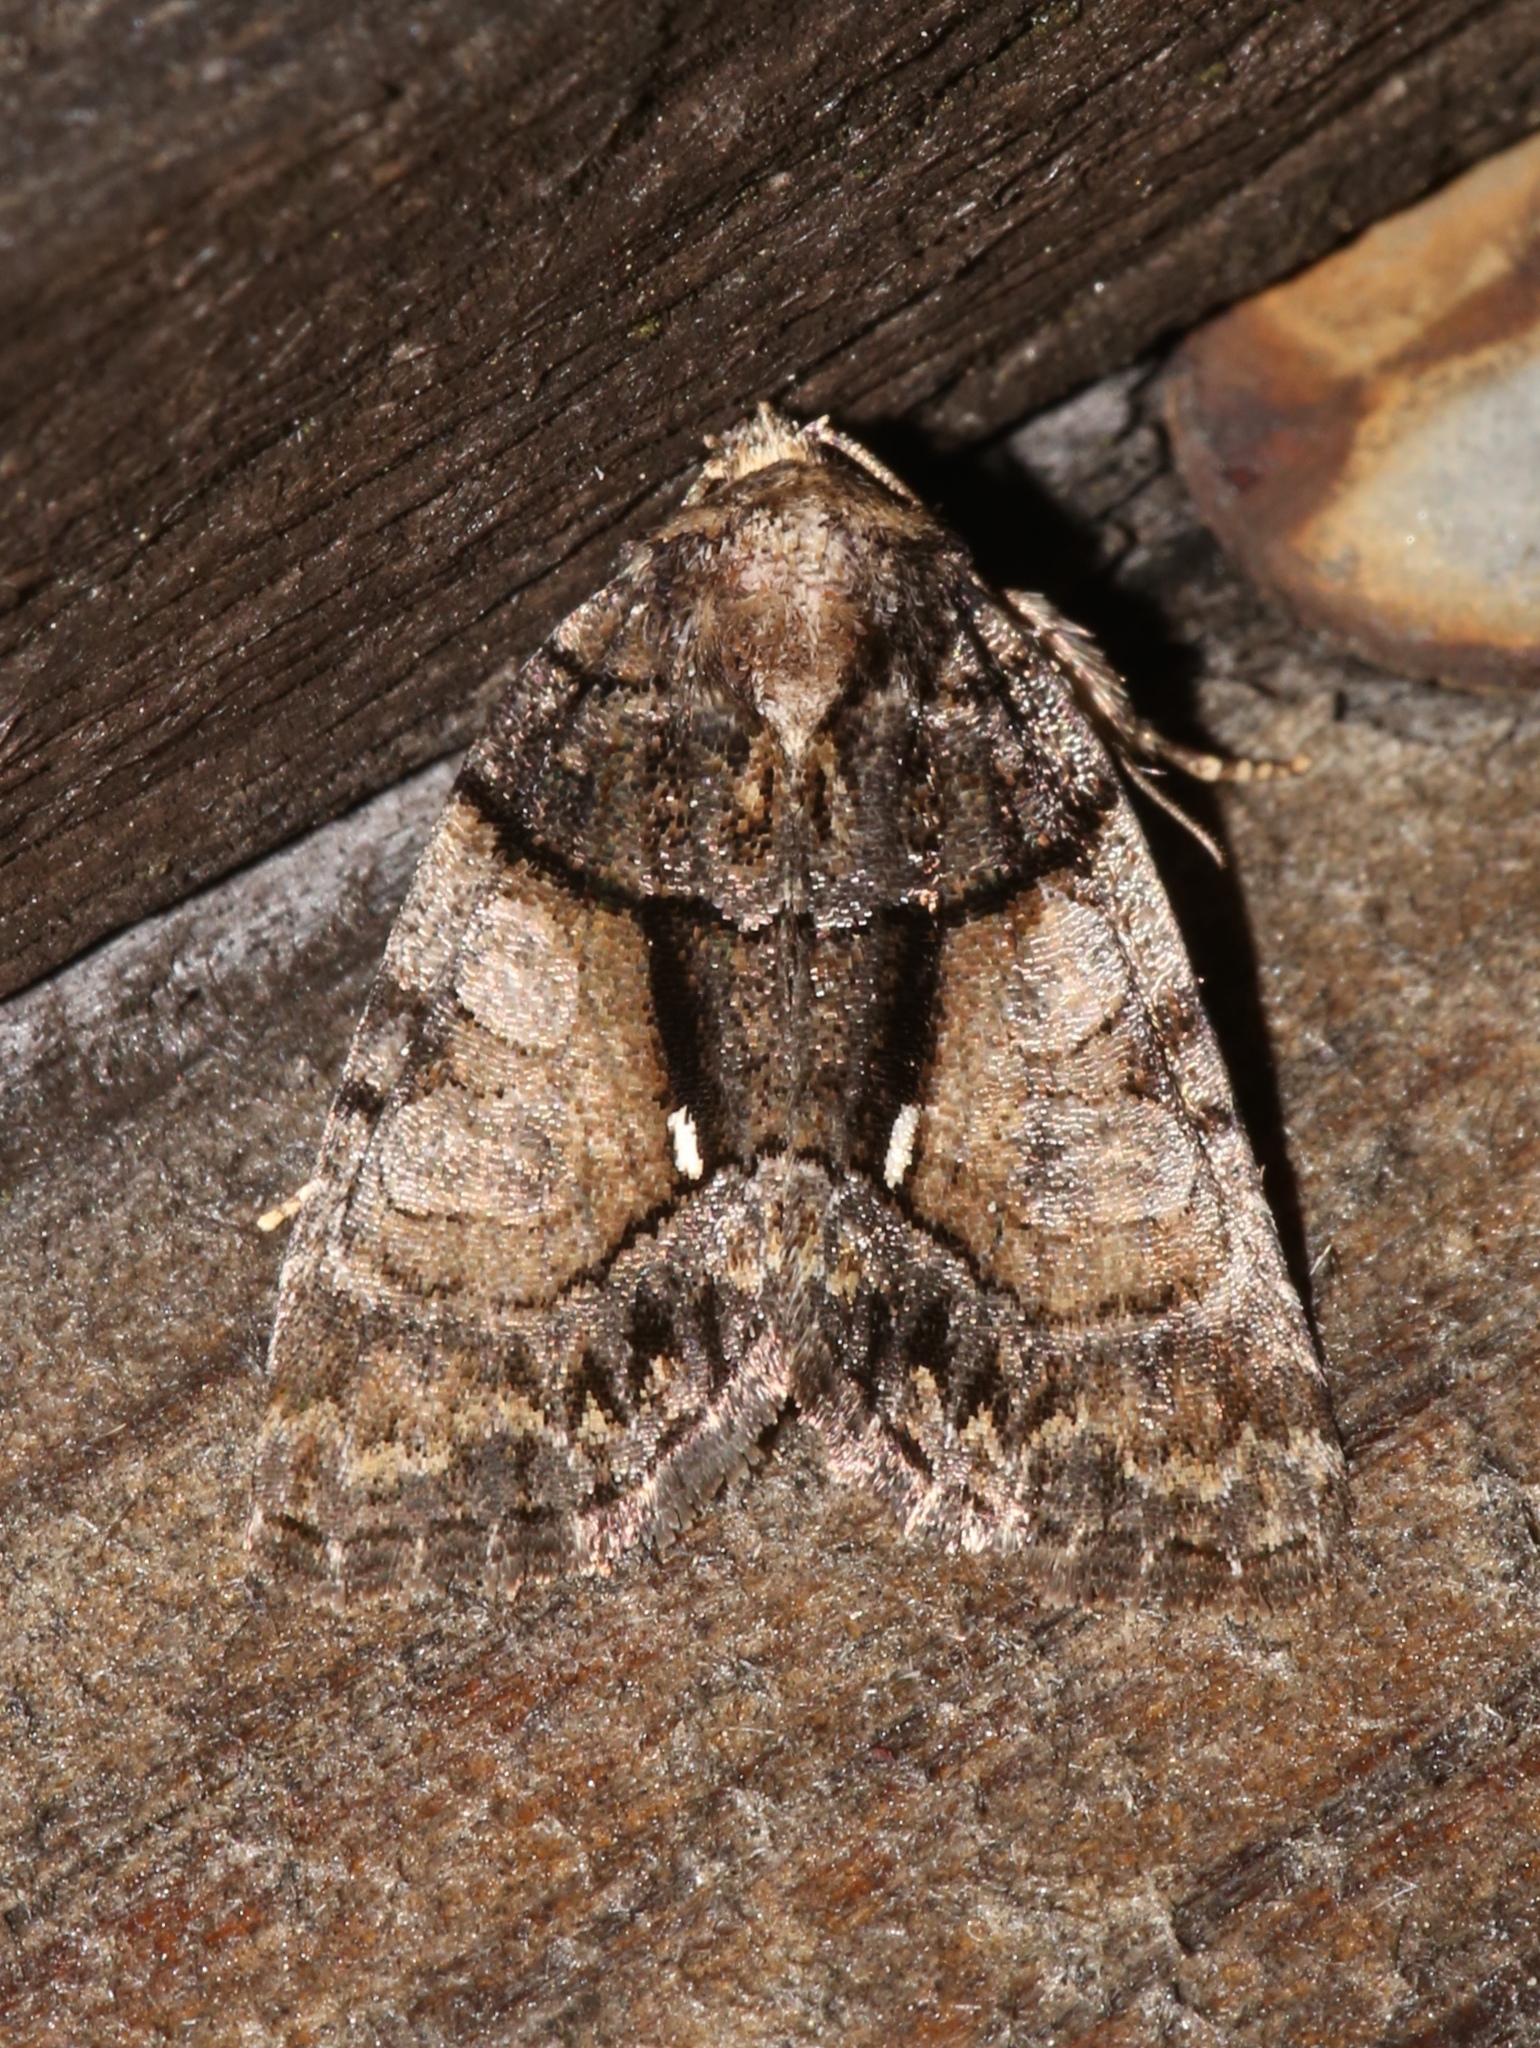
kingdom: Animalia
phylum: Arthropoda
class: Insecta
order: Lepidoptera
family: Noctuidae
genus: Chytonix
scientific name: Chytonix palliatricula
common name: Cloaked marvel
